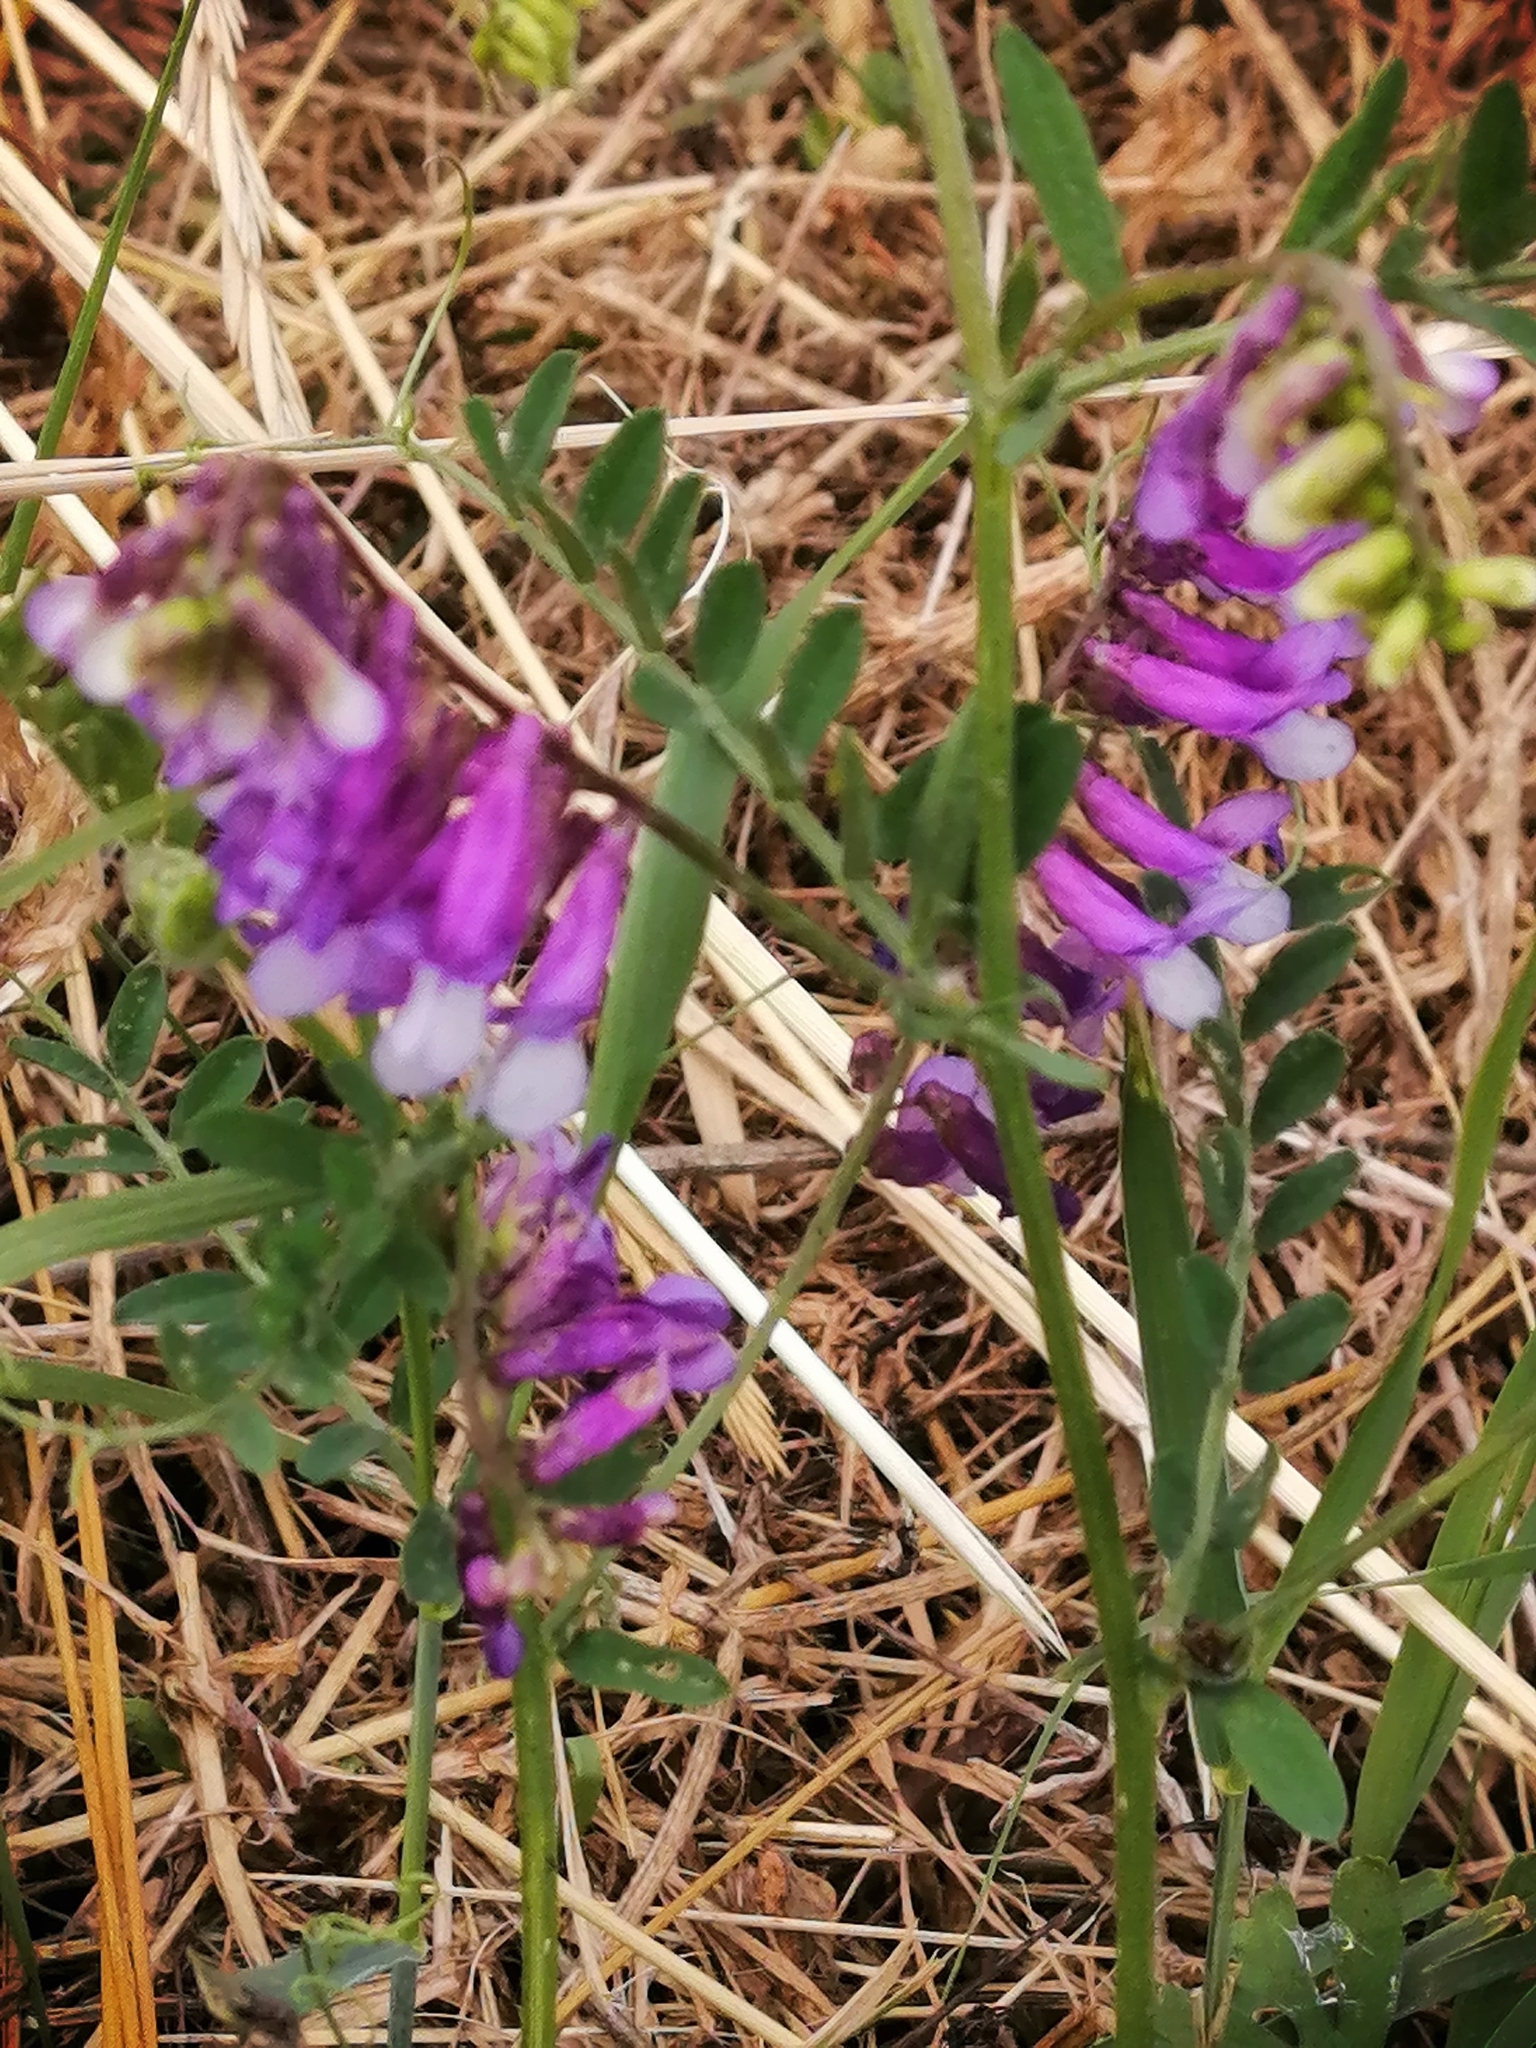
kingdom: Plantae
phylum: Tracheophyta
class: Magnoliopsida
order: Fabales
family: Fabaceae
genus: Vicia
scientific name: Vicia villosa
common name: Fodder vetch
